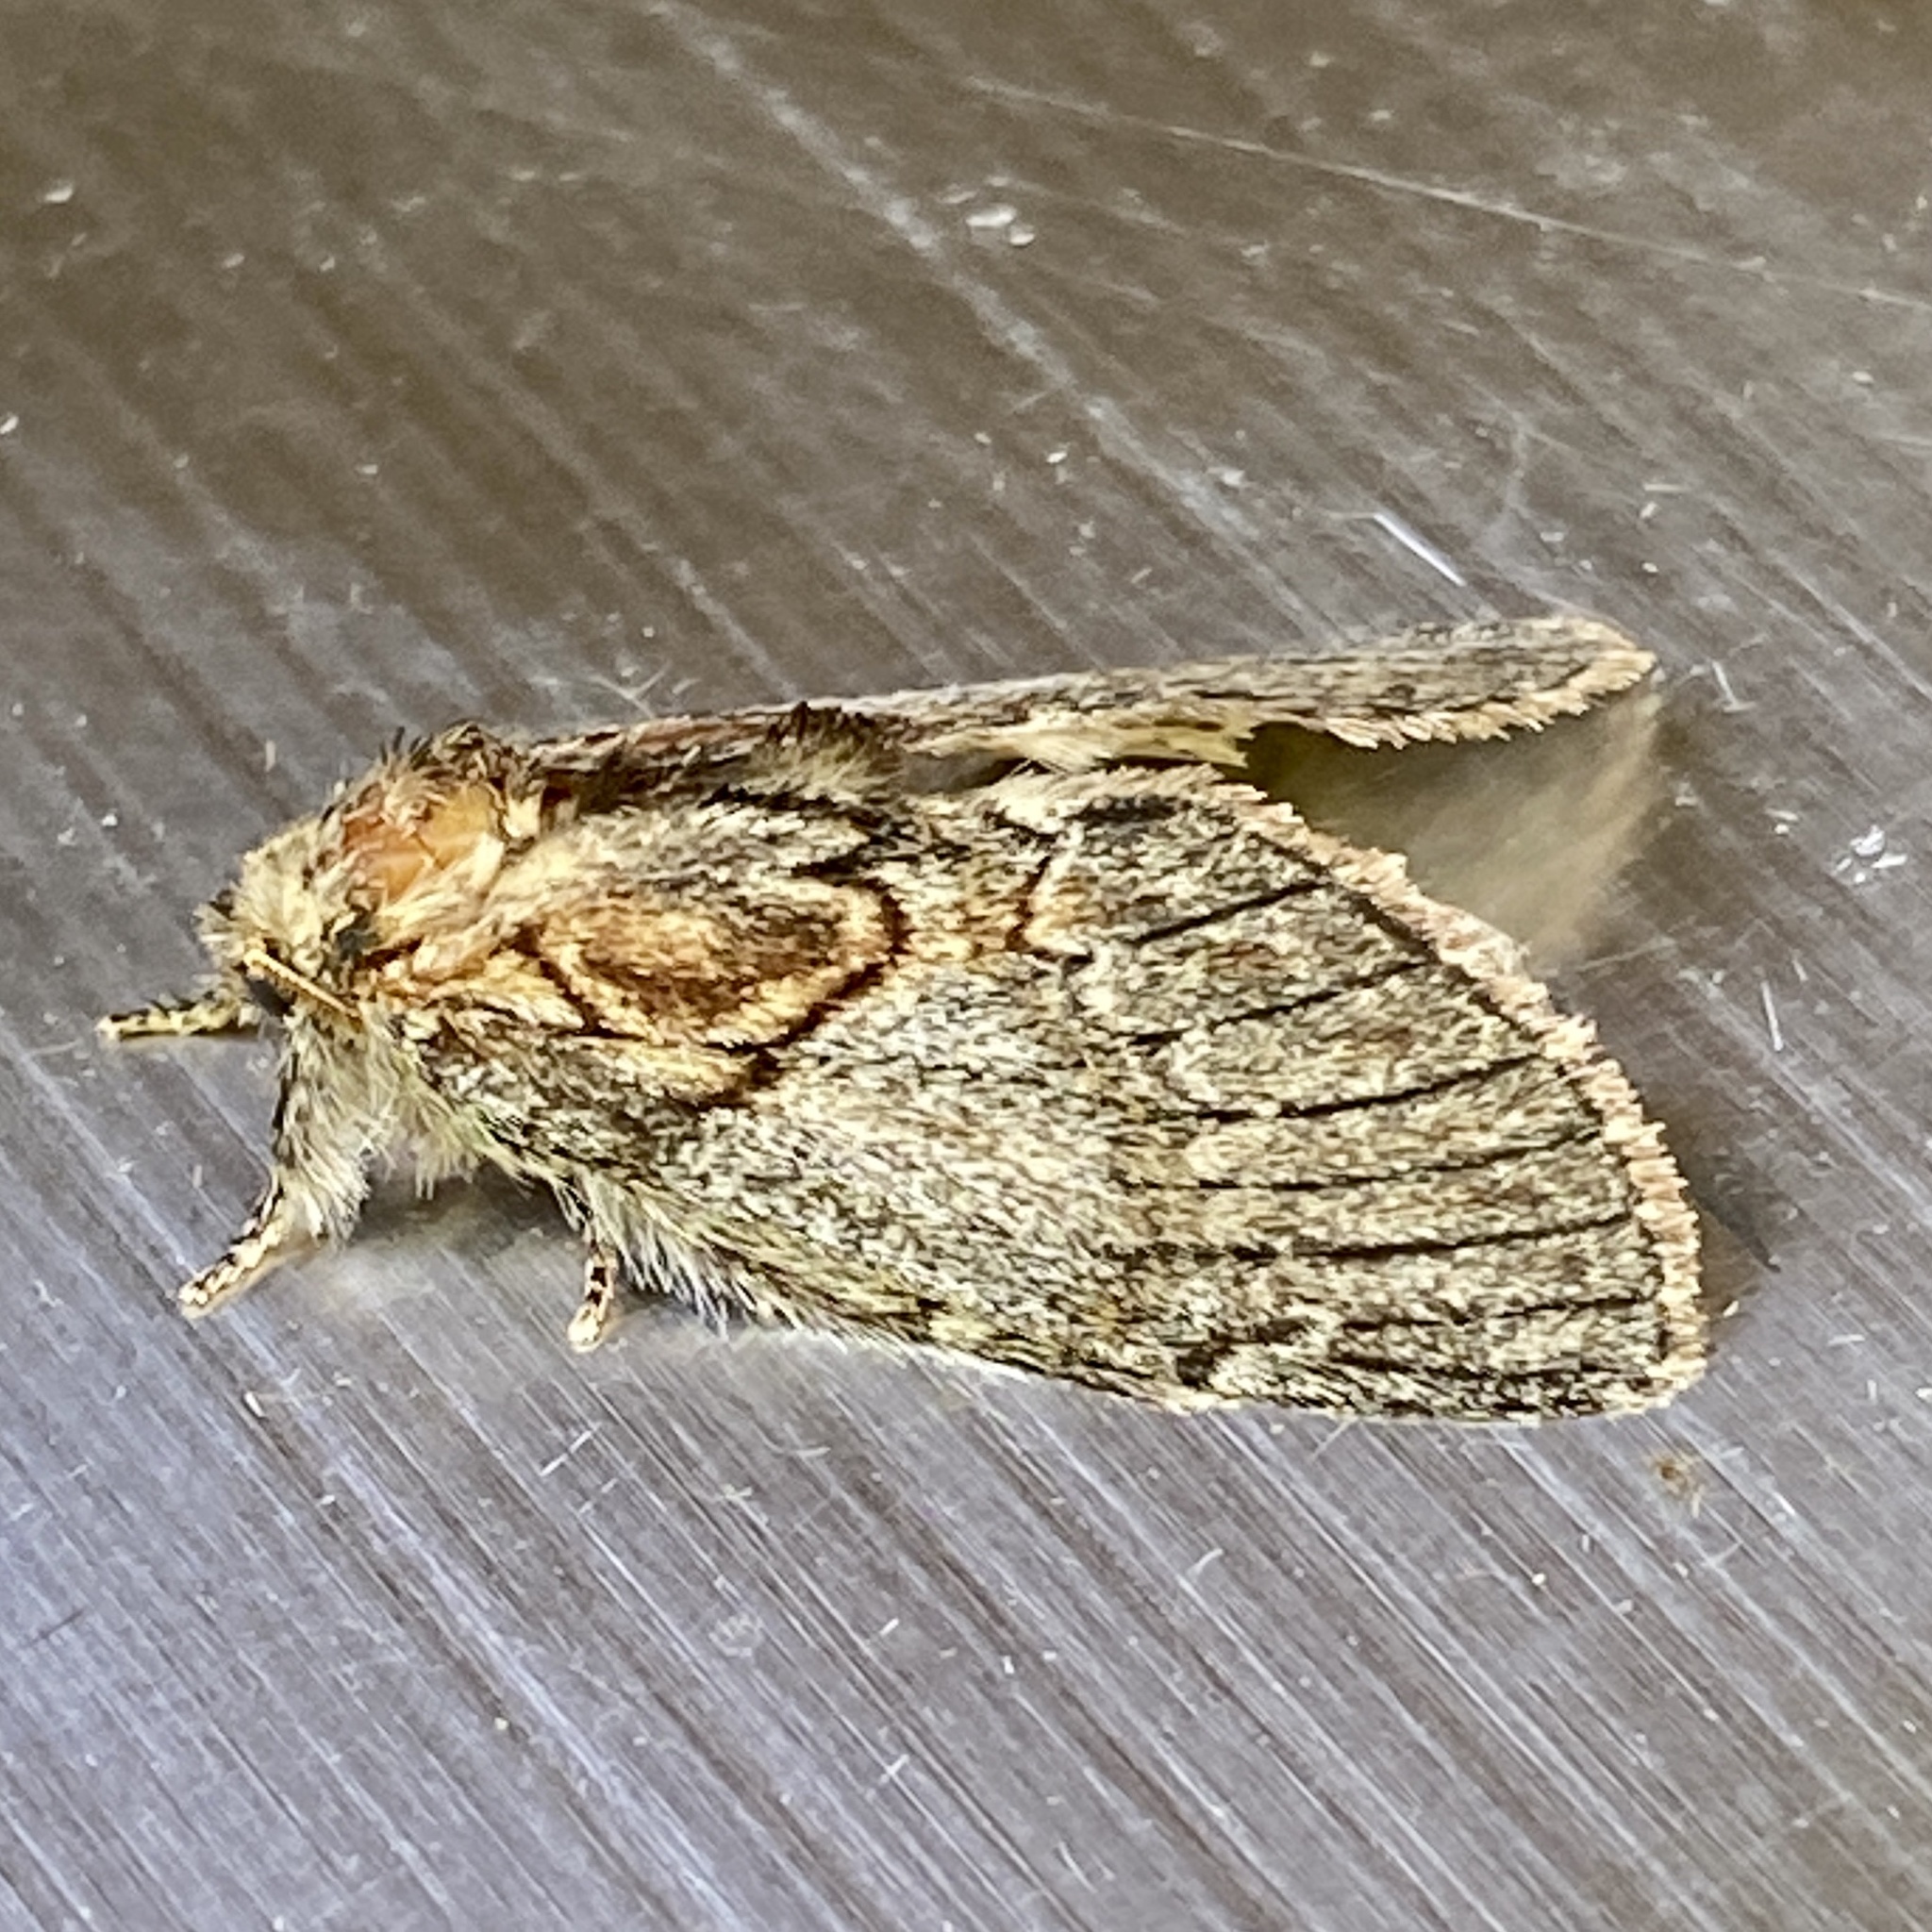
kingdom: Animalia
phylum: Arthropoda
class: Insecta
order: Lepidoptera
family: Notodontidae
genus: Peridea
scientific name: Peridea basitriens
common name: Oval-based prominent
